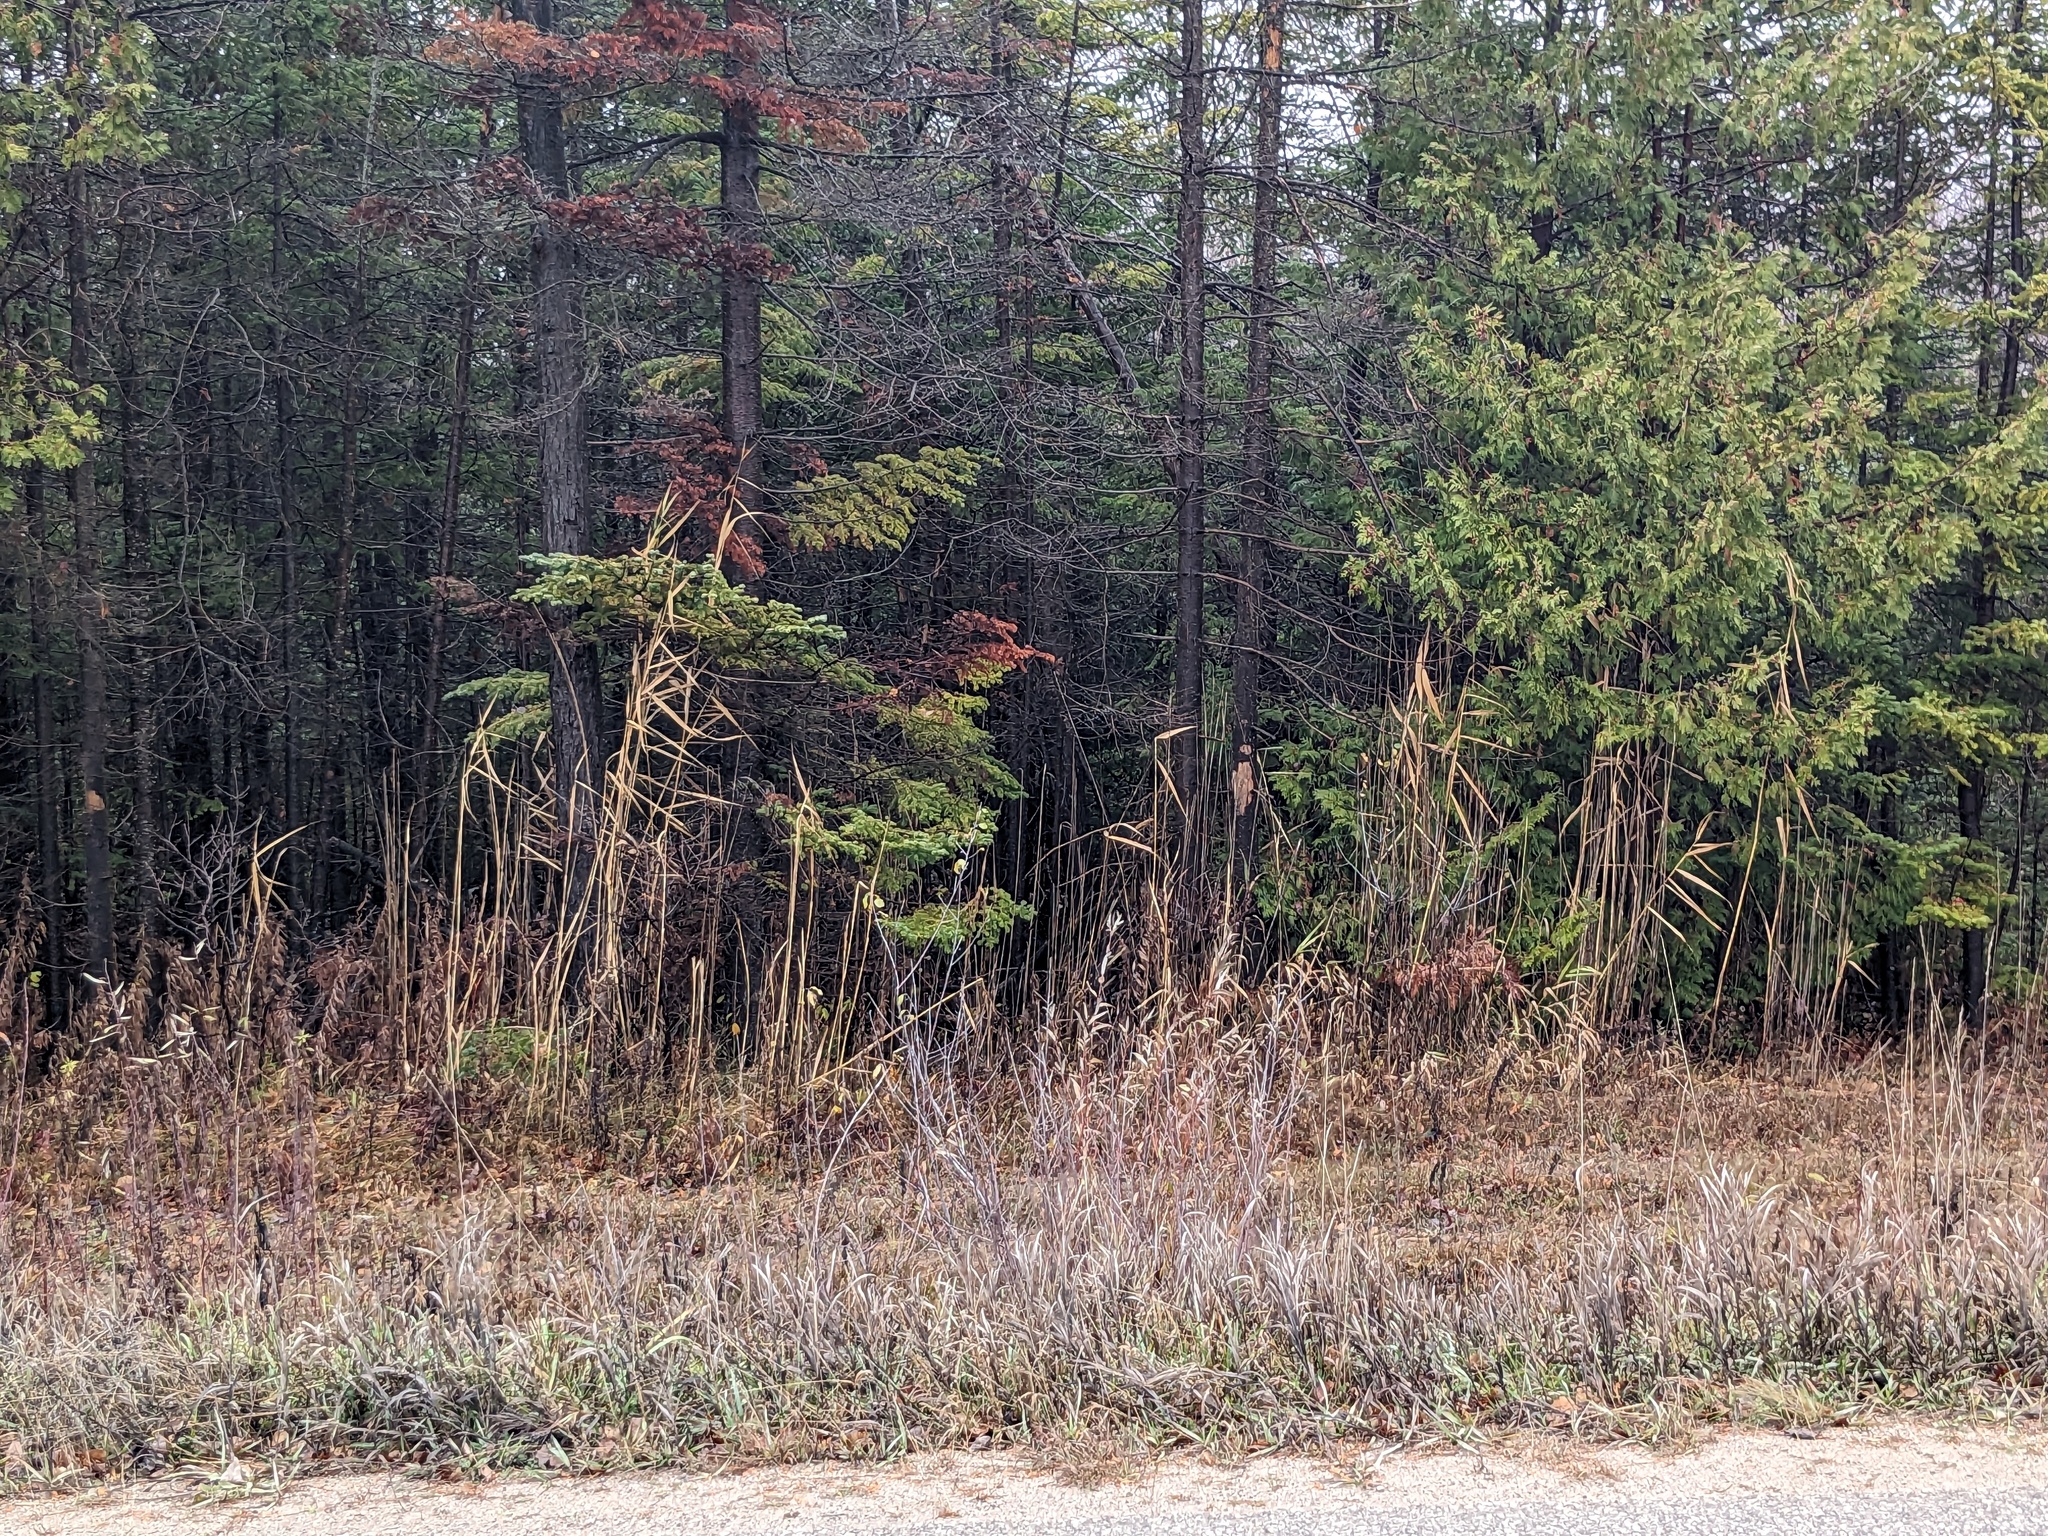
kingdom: Plantae
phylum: Tracheophyta
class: Liliopsida
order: Poales
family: Poaceae
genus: Phragmites
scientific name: Phragmites australis
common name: Common reed
